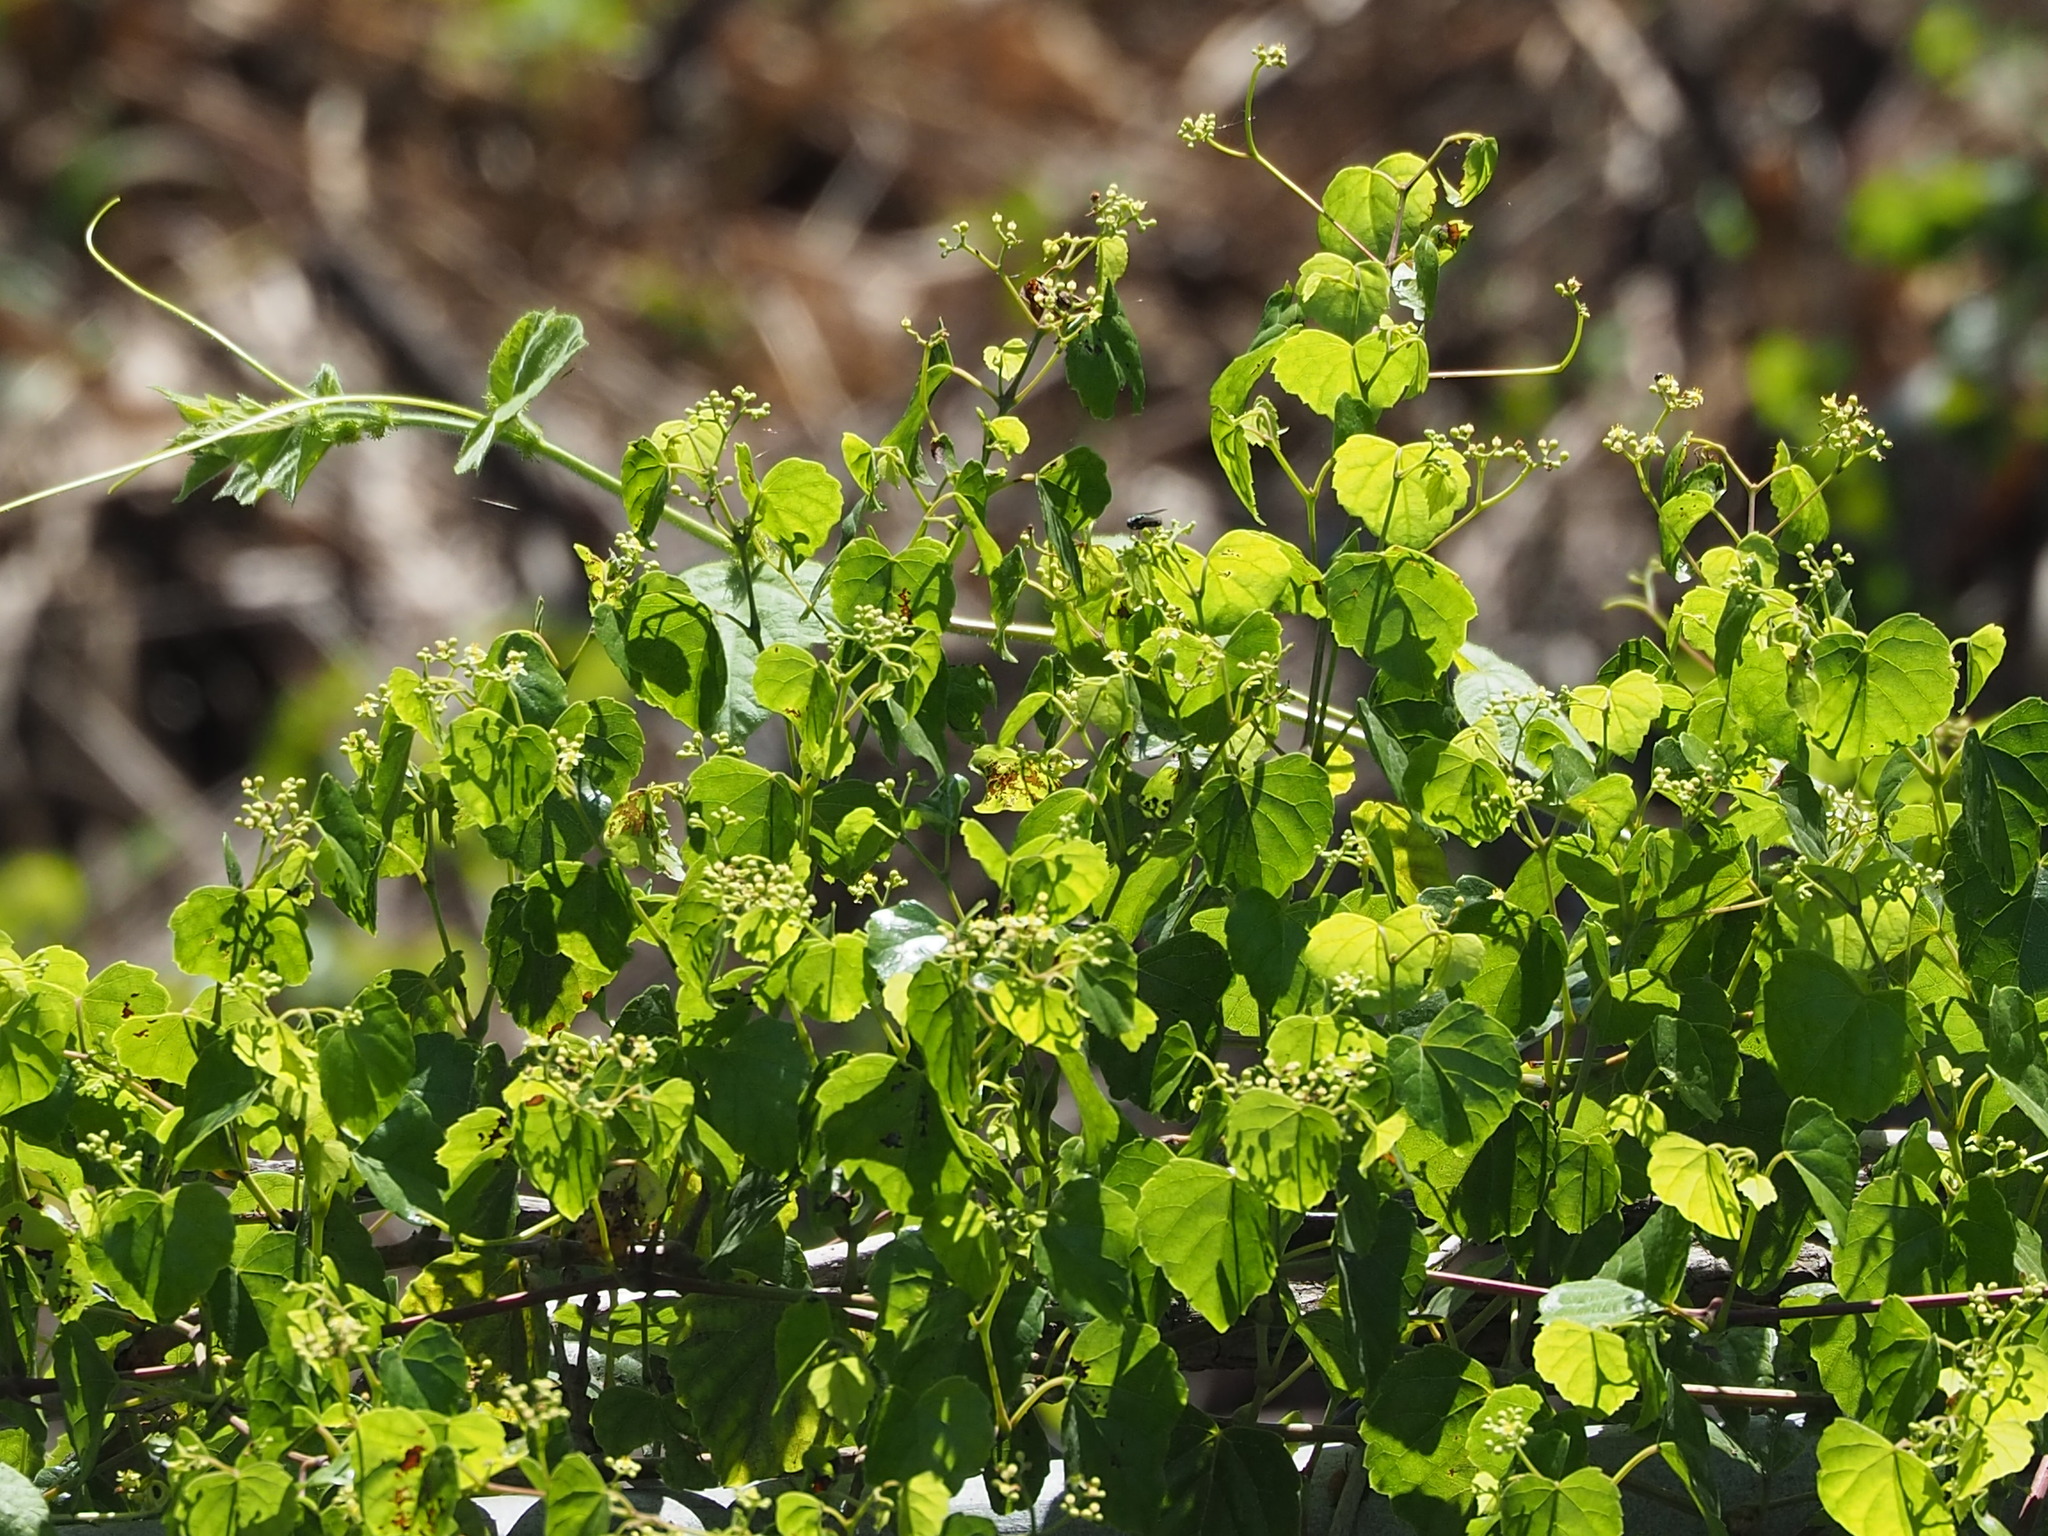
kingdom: Plantae
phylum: Tracheophyta
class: Magnoliopsida
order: Vitales
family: Vitaceae
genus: Ampelopsis
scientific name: Ampelopsis glandulosa
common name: Amur peppervine
